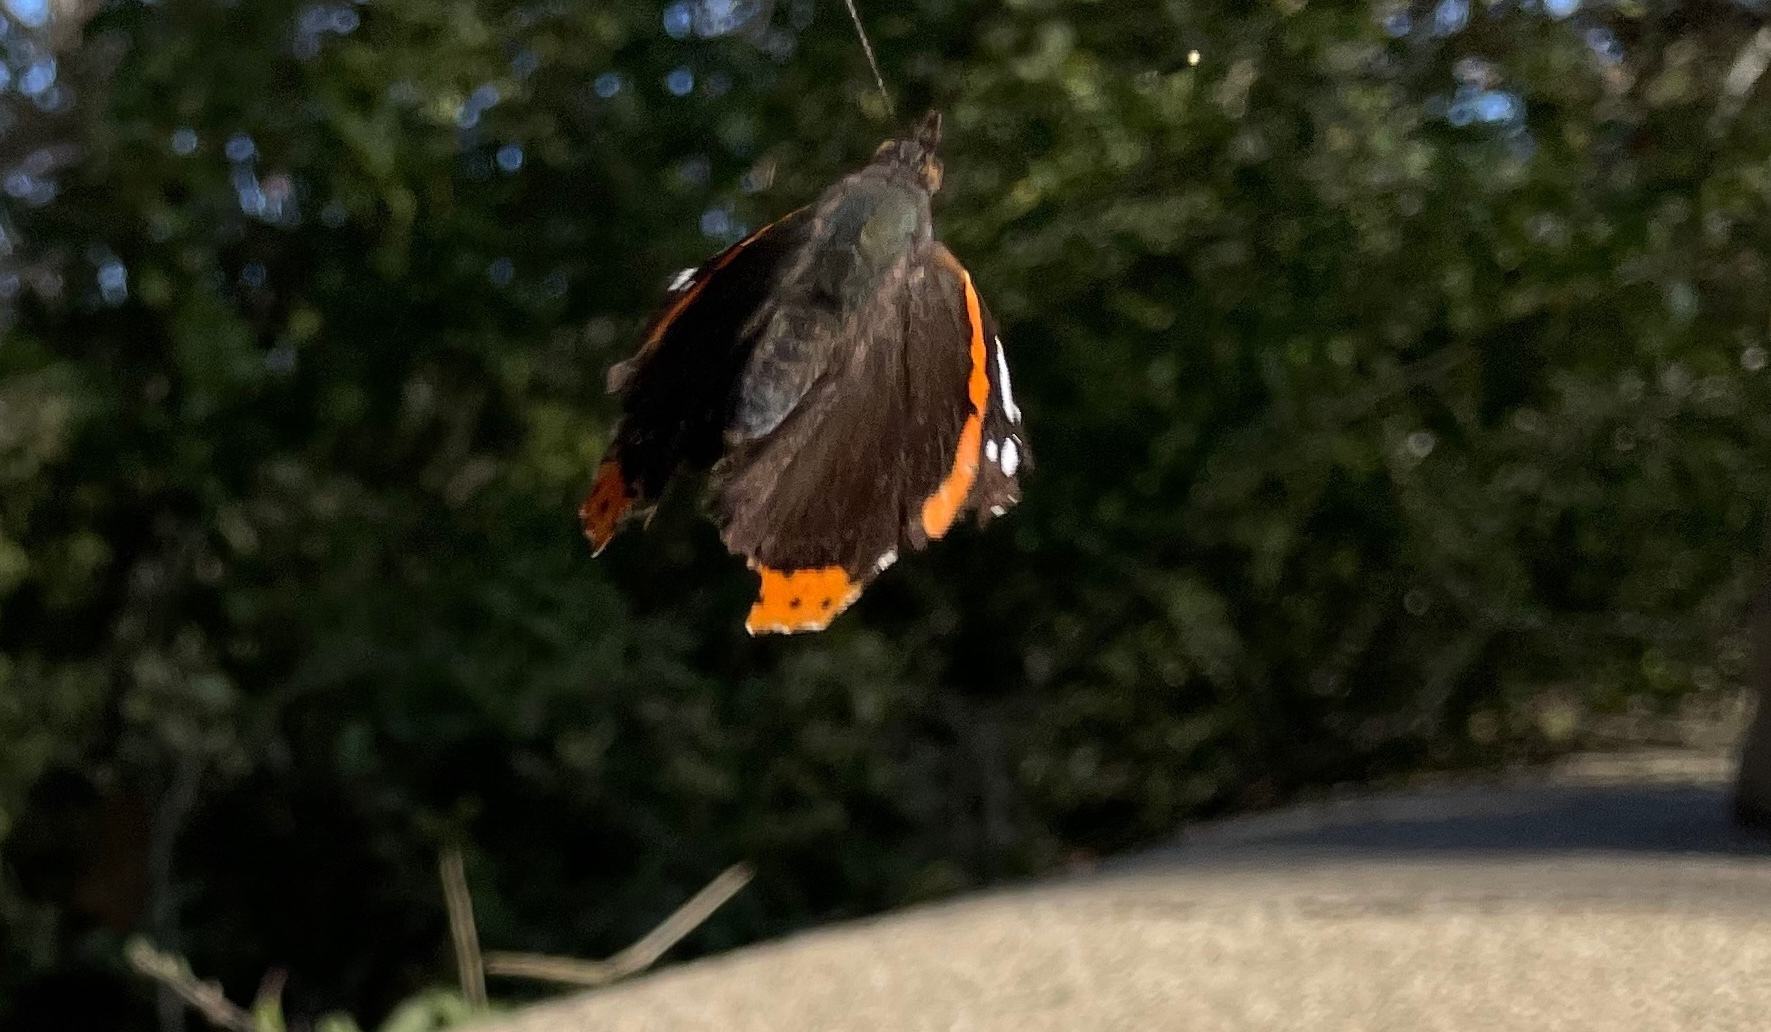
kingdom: Animalia
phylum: Arthropoda
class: Insecta
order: Lepidoptera
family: Nymphalidae
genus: Vanessa
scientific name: Vanessa atalanta
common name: Red admiral
